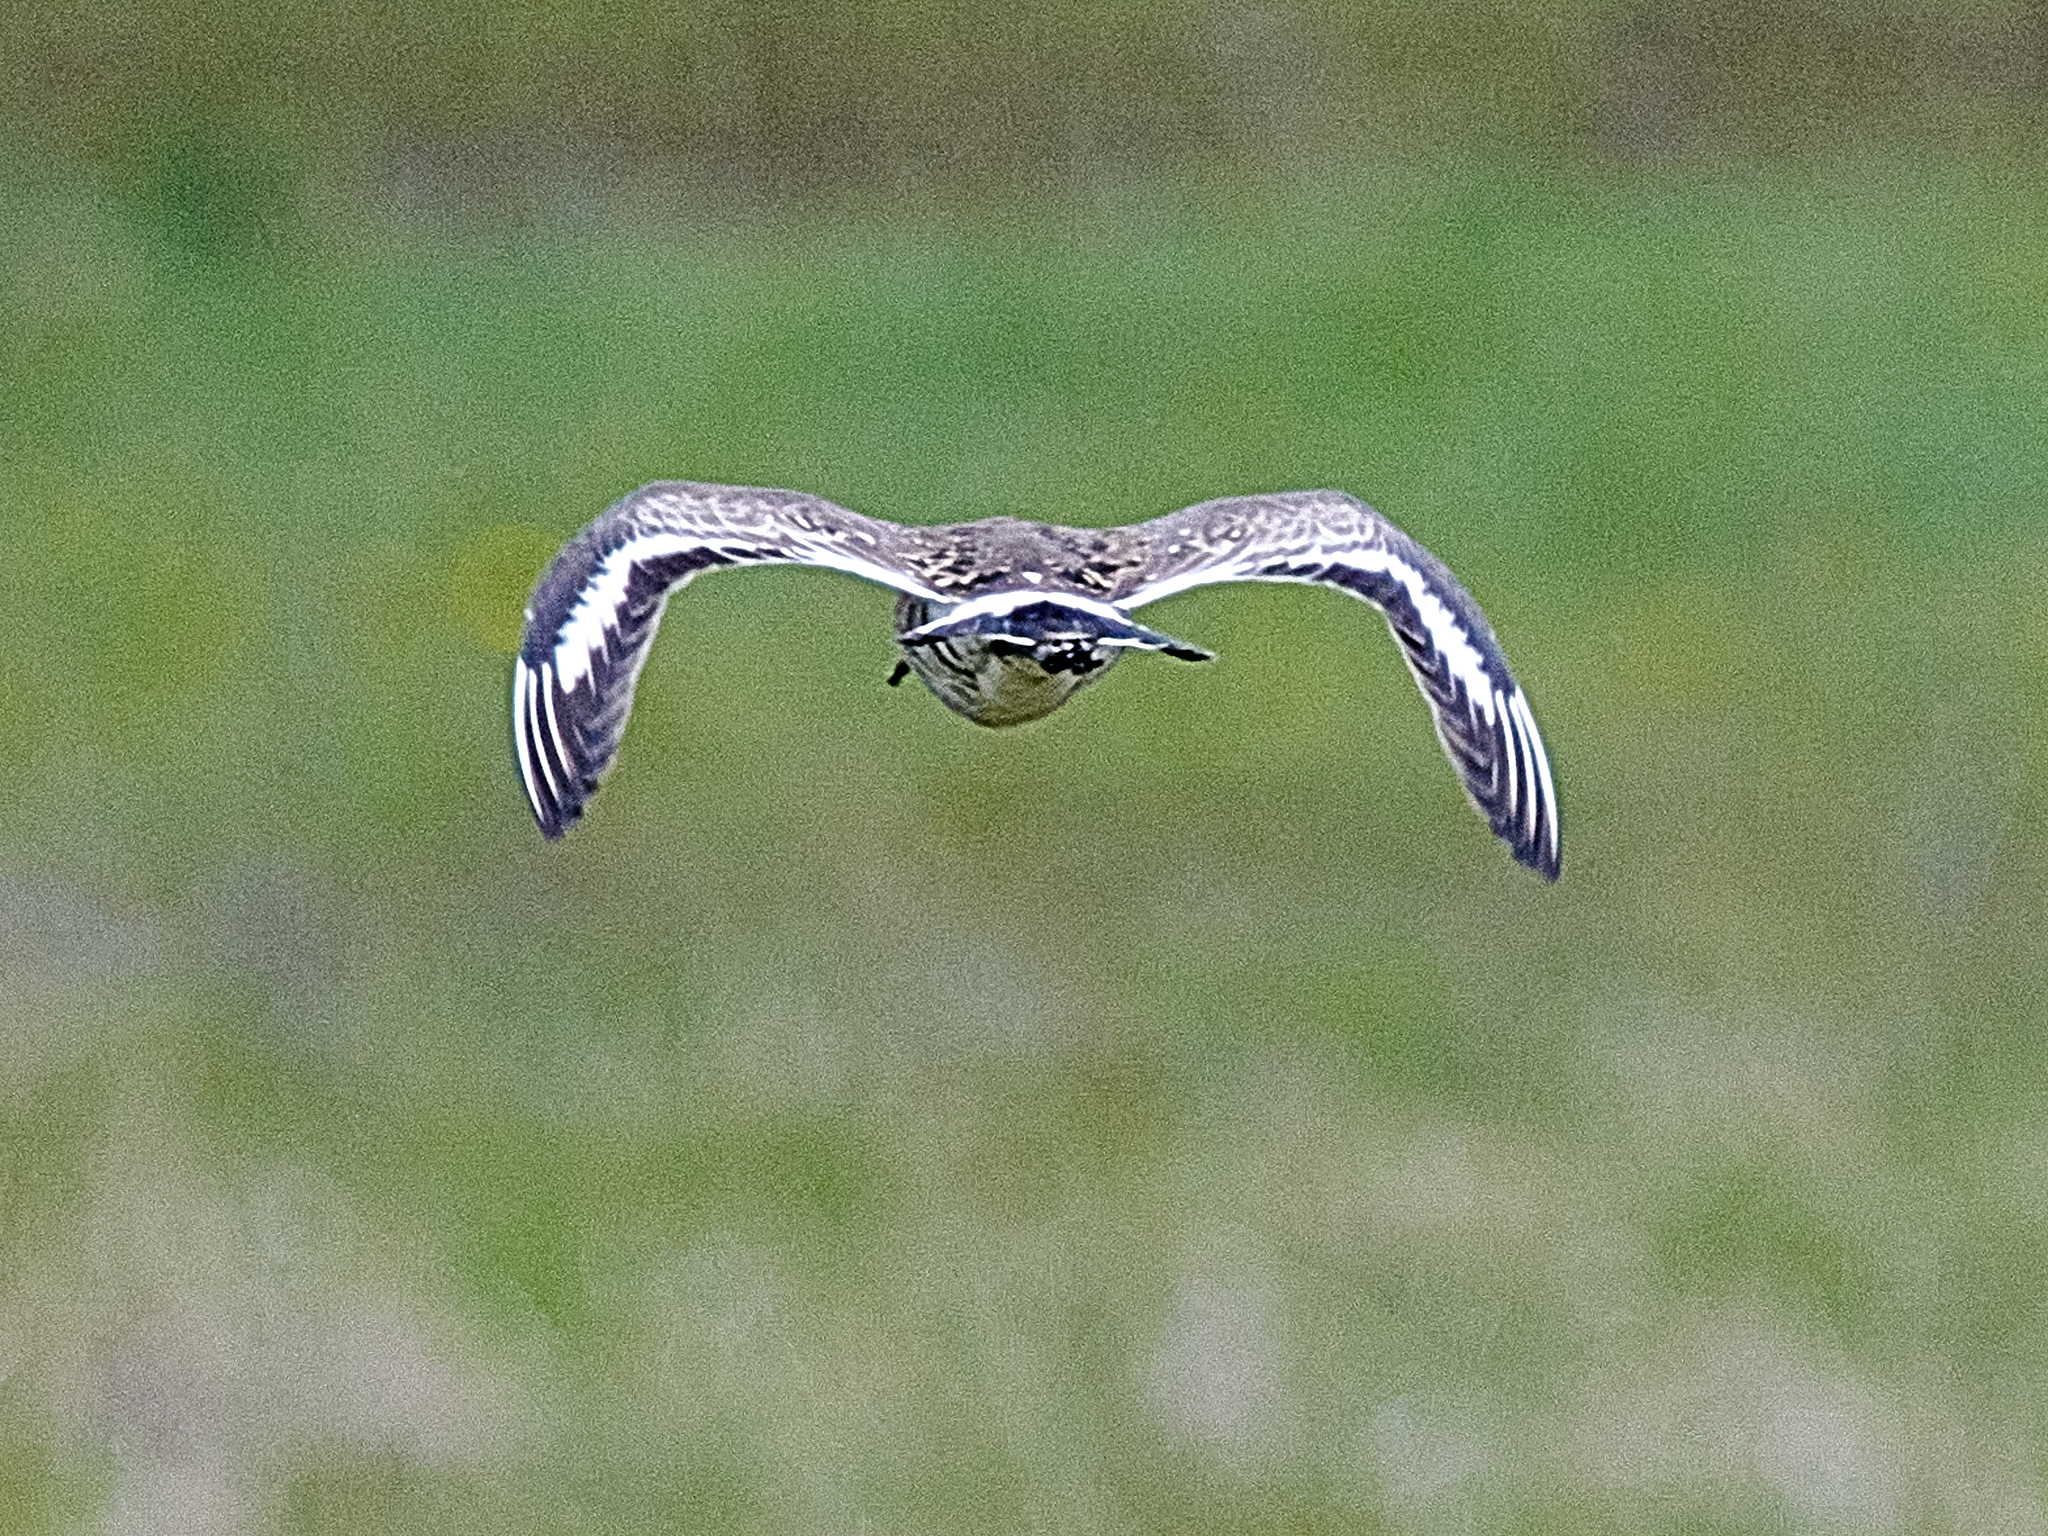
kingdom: Animalia
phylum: Chordata
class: Aves
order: Charadriiformes
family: Scolopacidae
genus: Limosa
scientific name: Limosa limosa
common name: Black-tailed godwit
